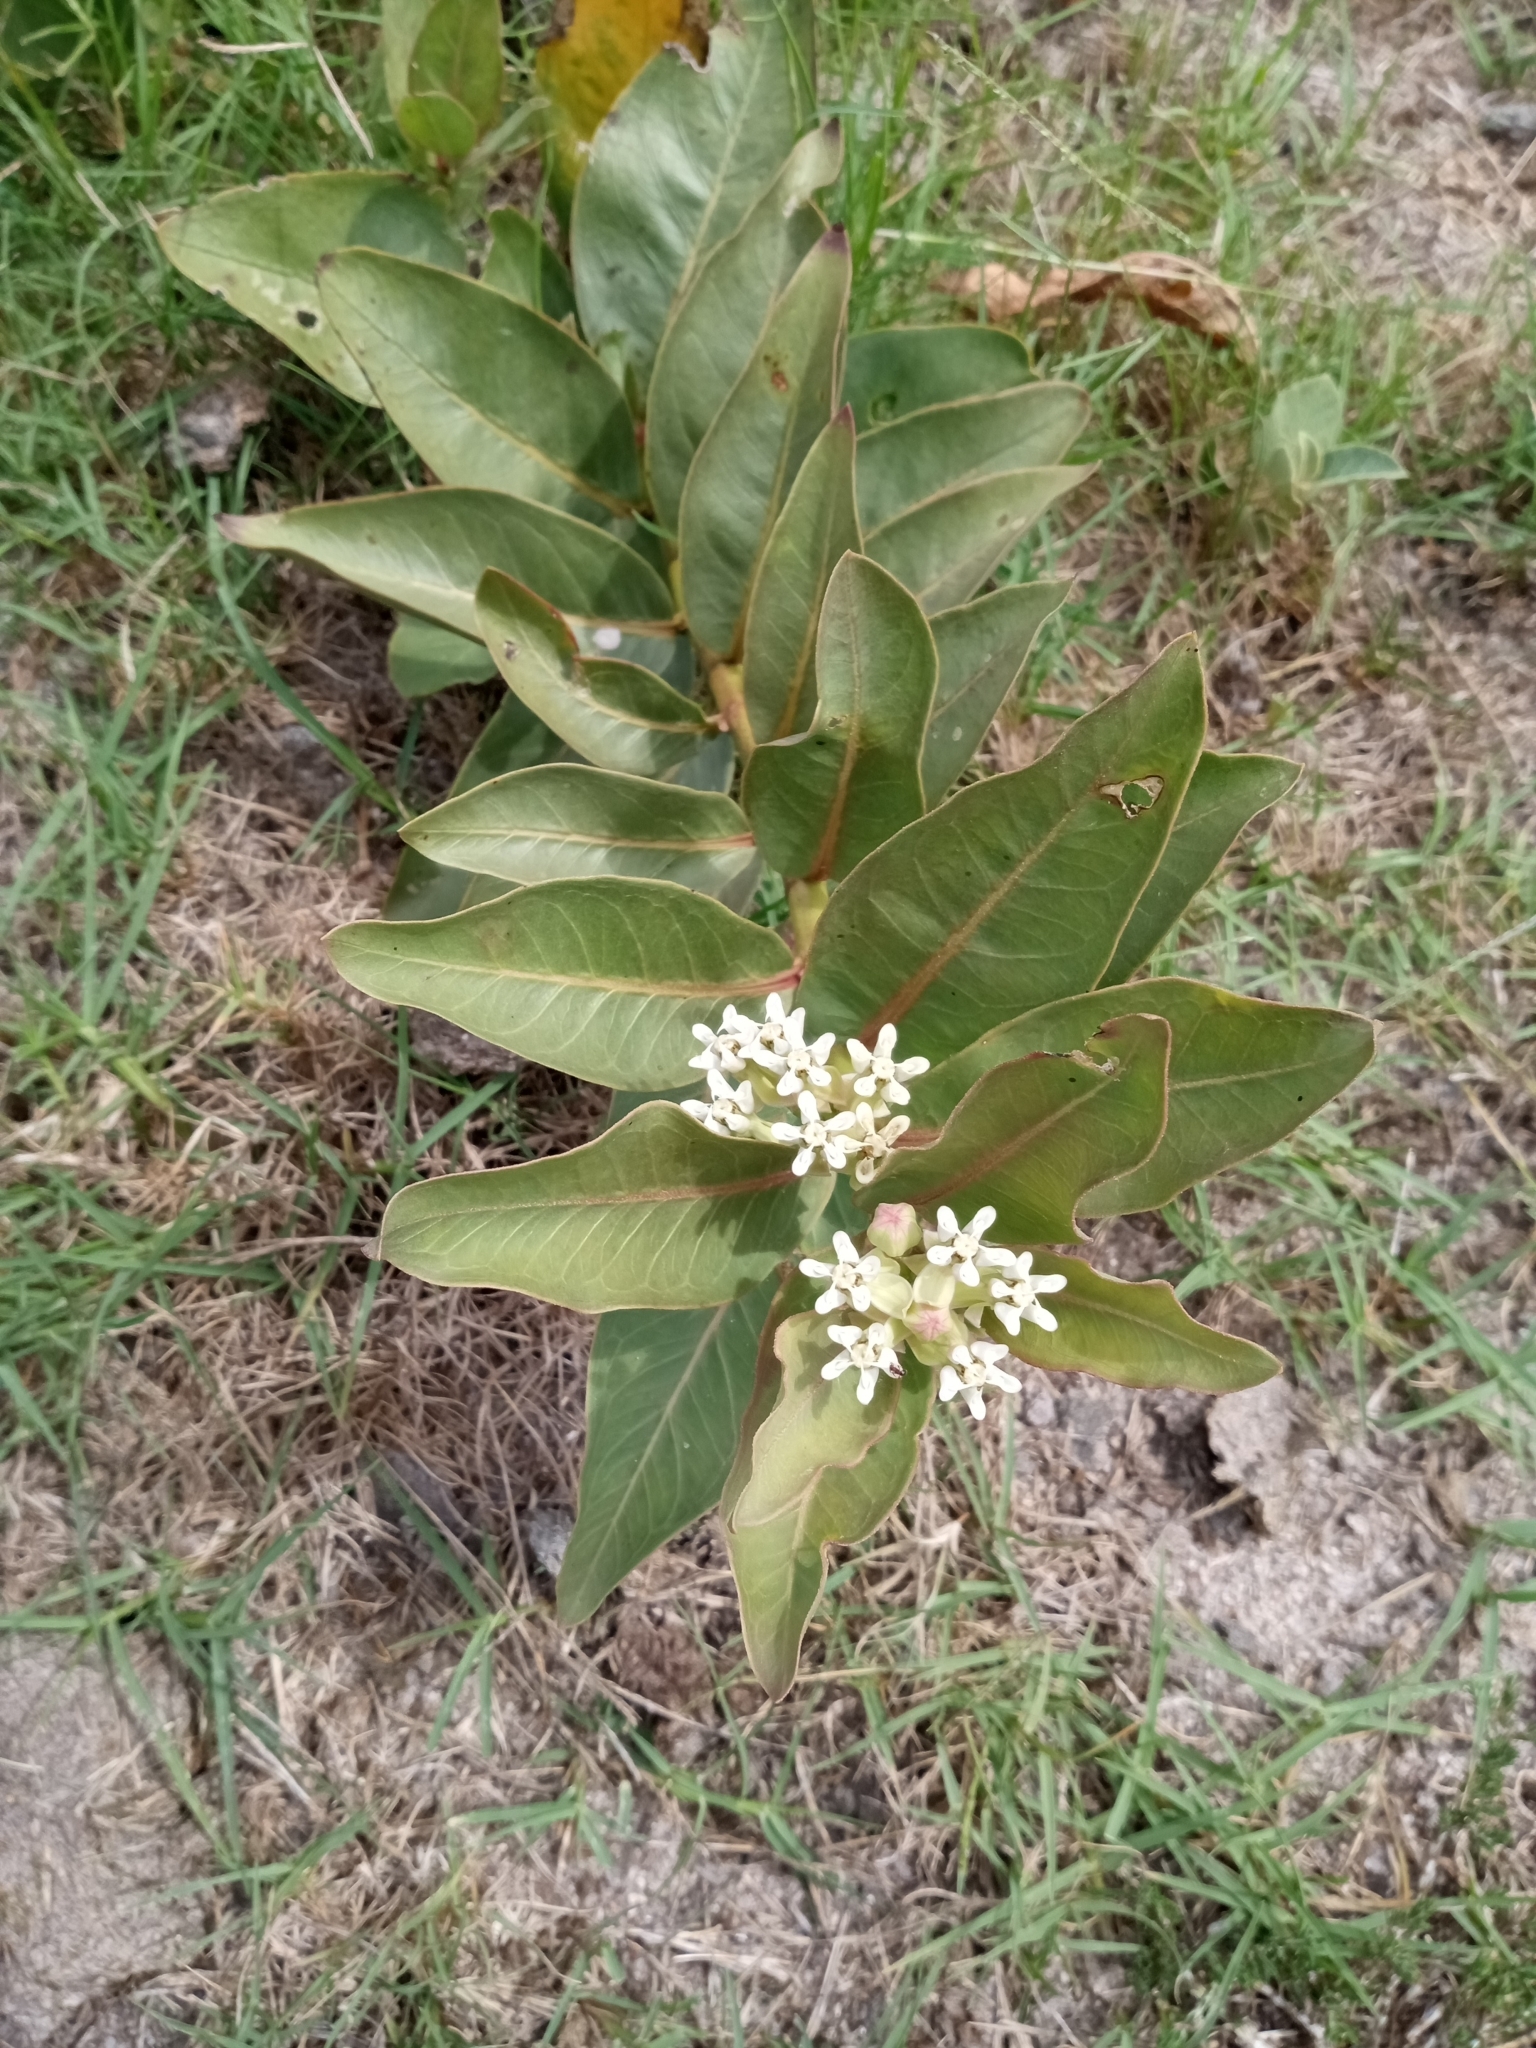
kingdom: Plantae
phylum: Tracheophyta
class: Magnoliopsida
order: Gentianales
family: Apocynaceae
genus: Asclepias
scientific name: Asclepias candida
